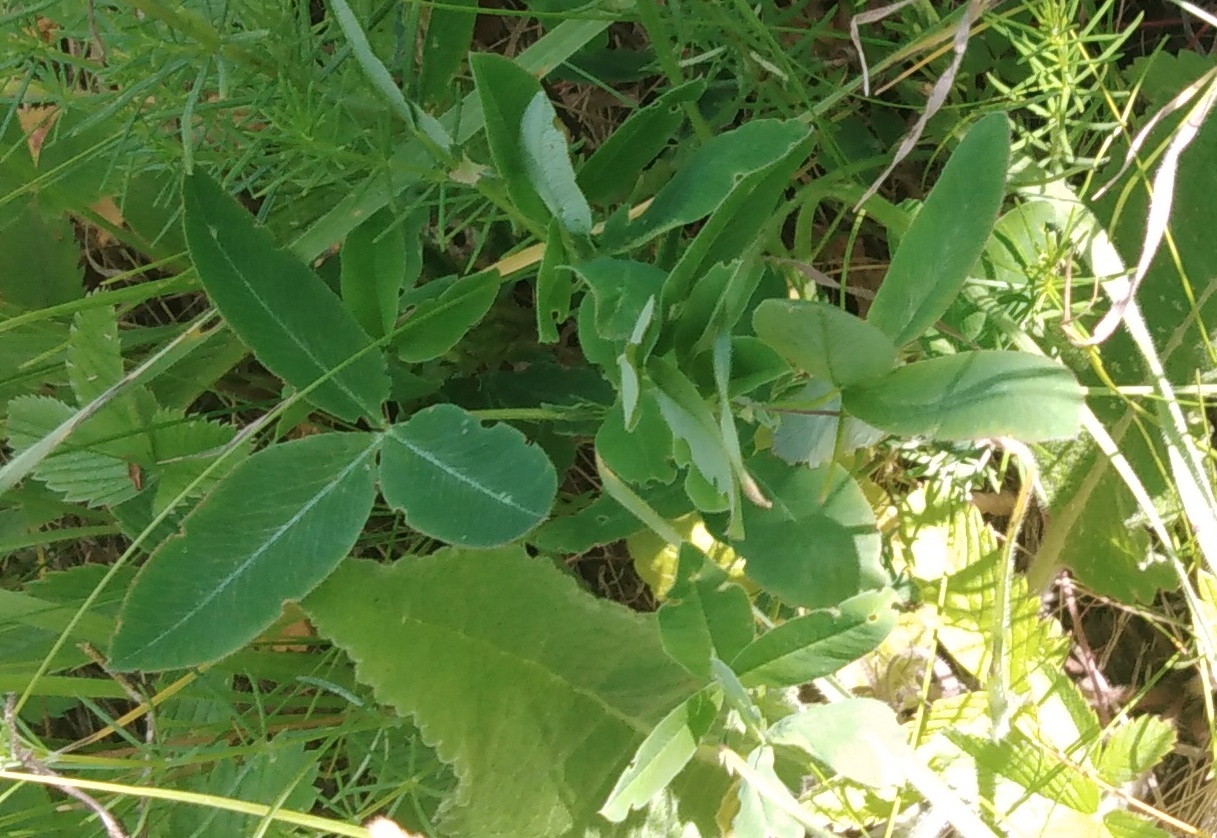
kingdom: Plantae
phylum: Tracheophyta
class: Magnoliopsida
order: Fabales
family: Fabaceae
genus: Trifolium
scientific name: Trifolium medium
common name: Zigzag clover
